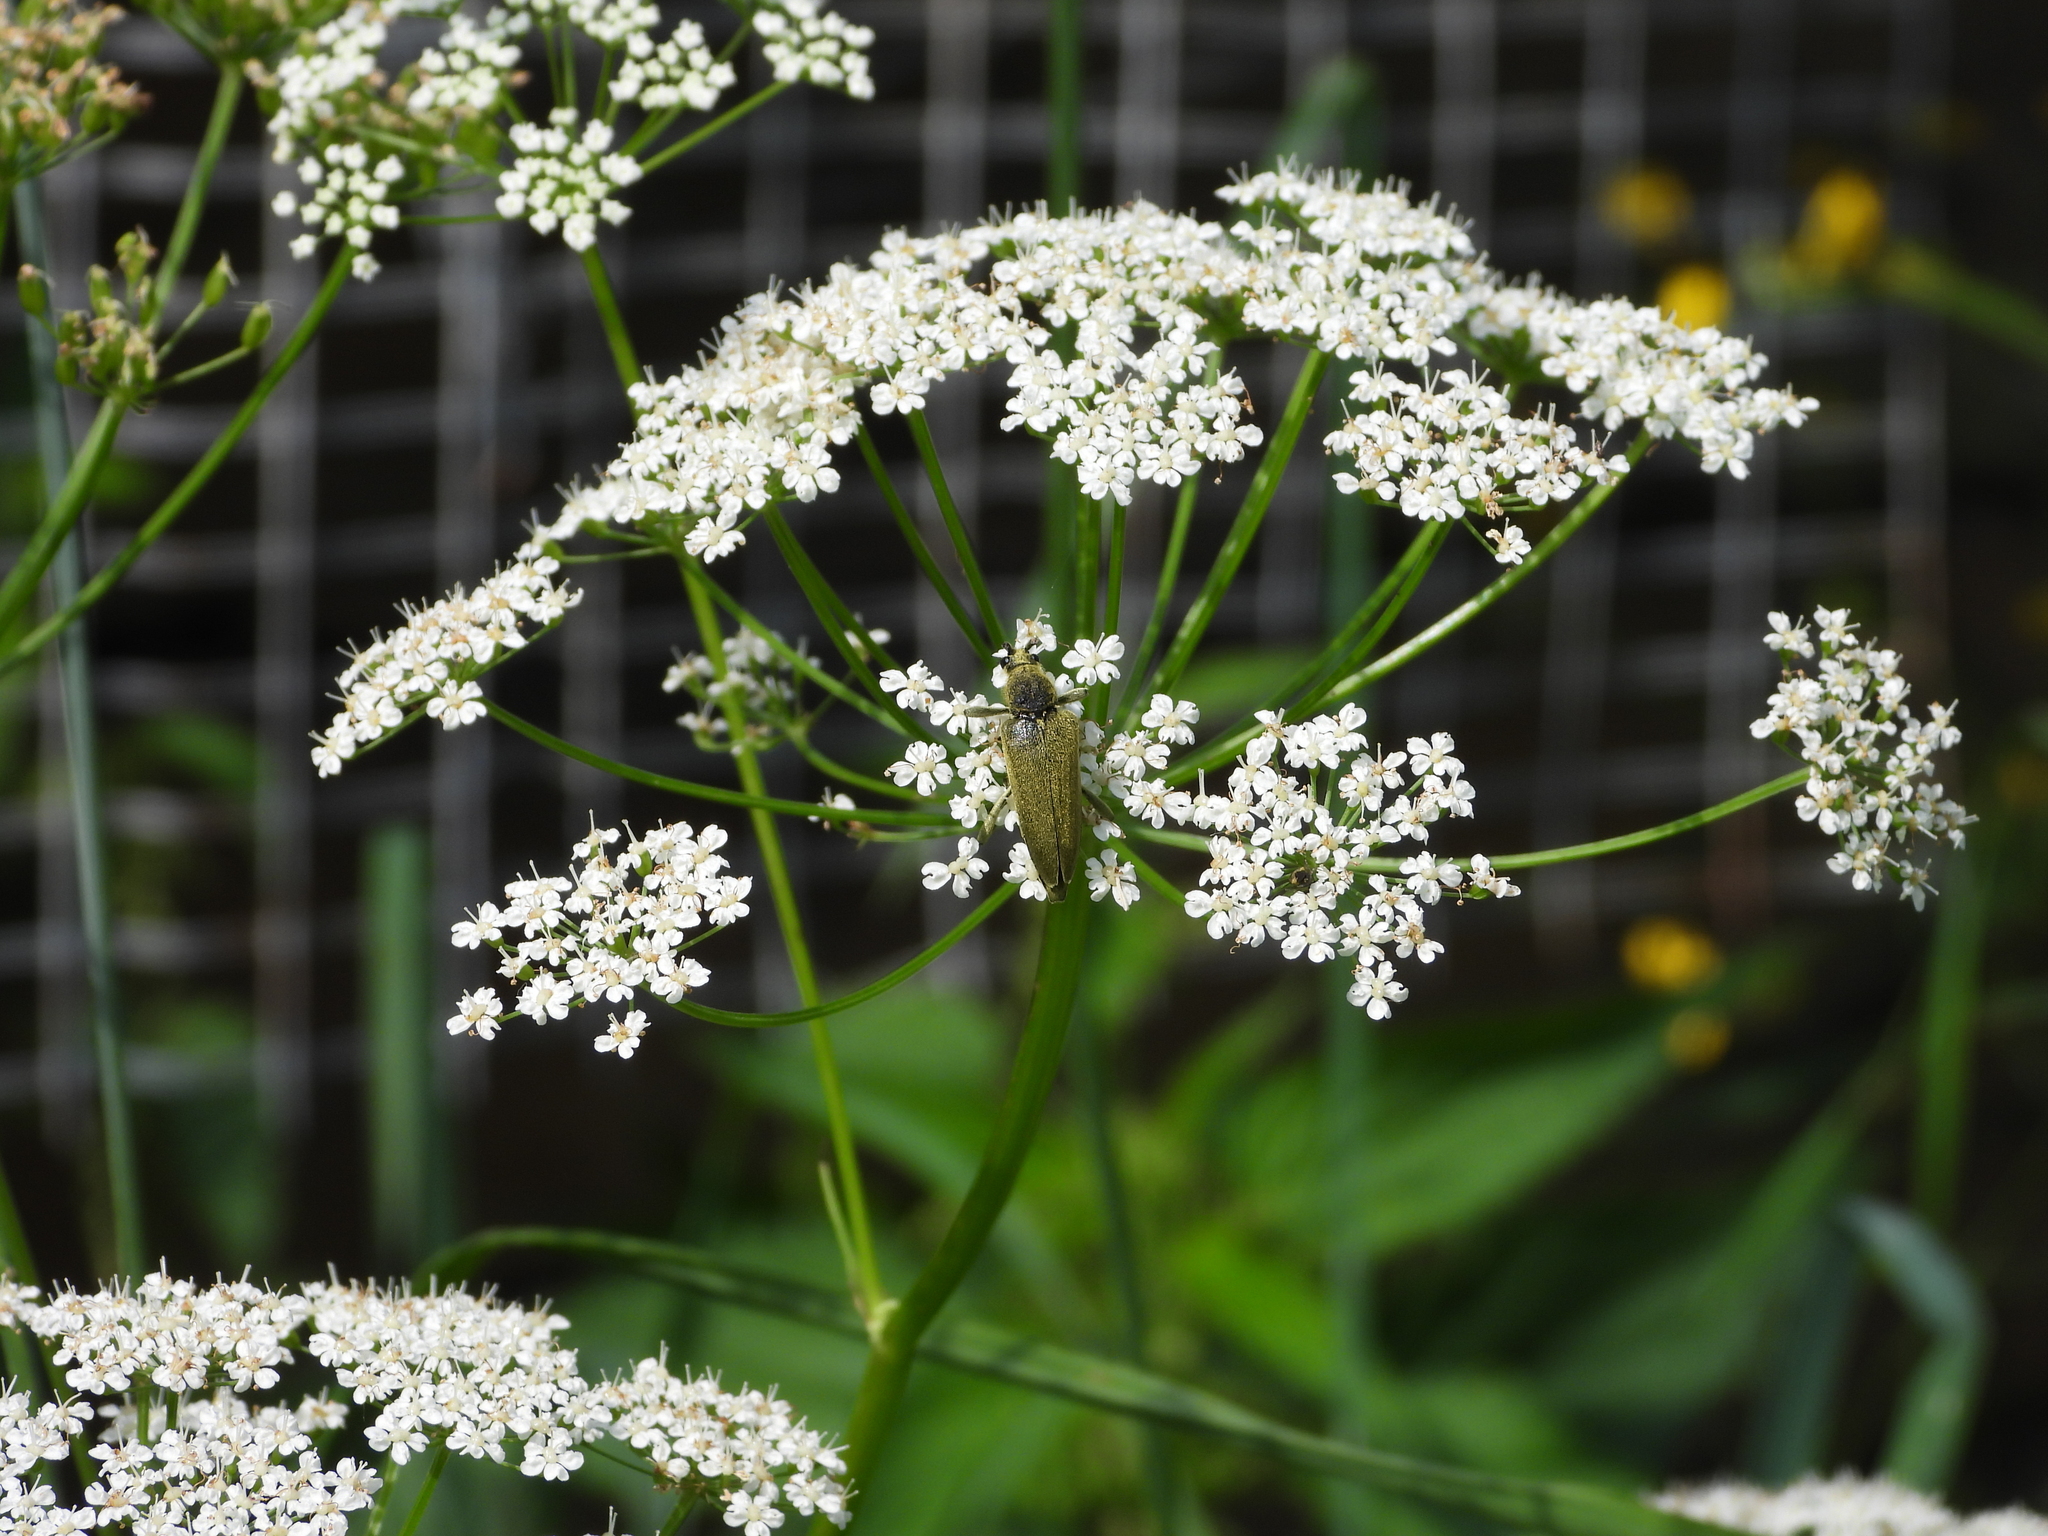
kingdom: Animalia
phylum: Arthropoda
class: Insecta
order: Coleoptera
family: Cerambycidae
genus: Lepturobosca
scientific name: Lepturobosca virens
